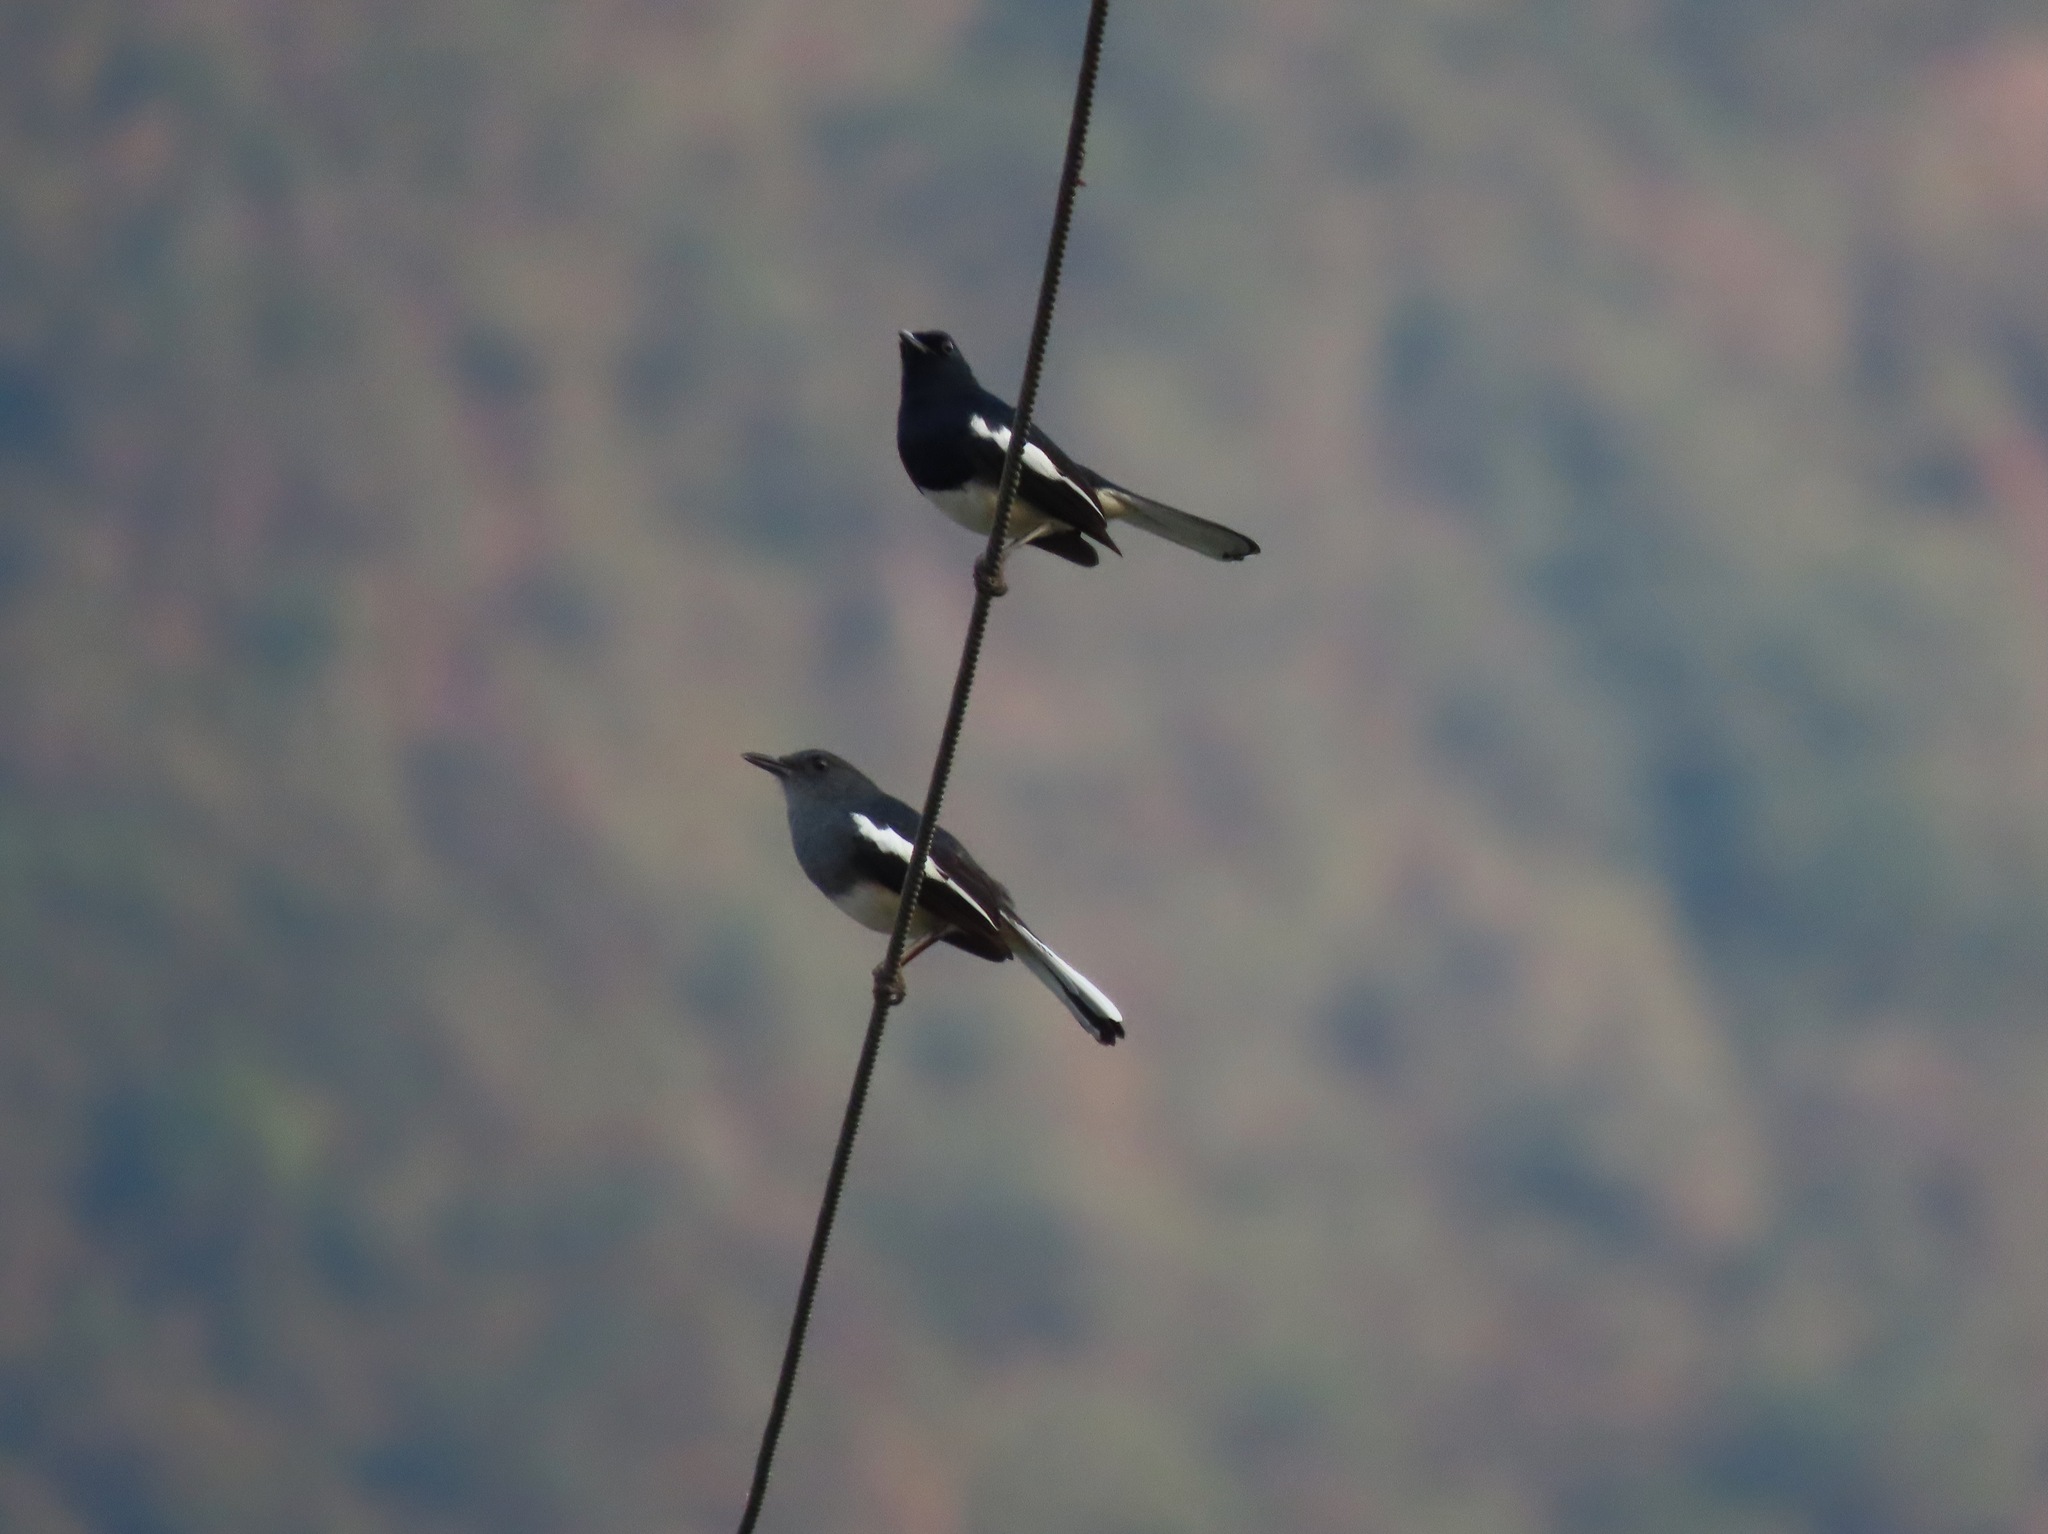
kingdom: Animalia
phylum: Chordata
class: Aves
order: Passeriformes
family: Muscicapidae
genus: Copsychus
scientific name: Copsychus saularis
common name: Oriental magpie-robin
